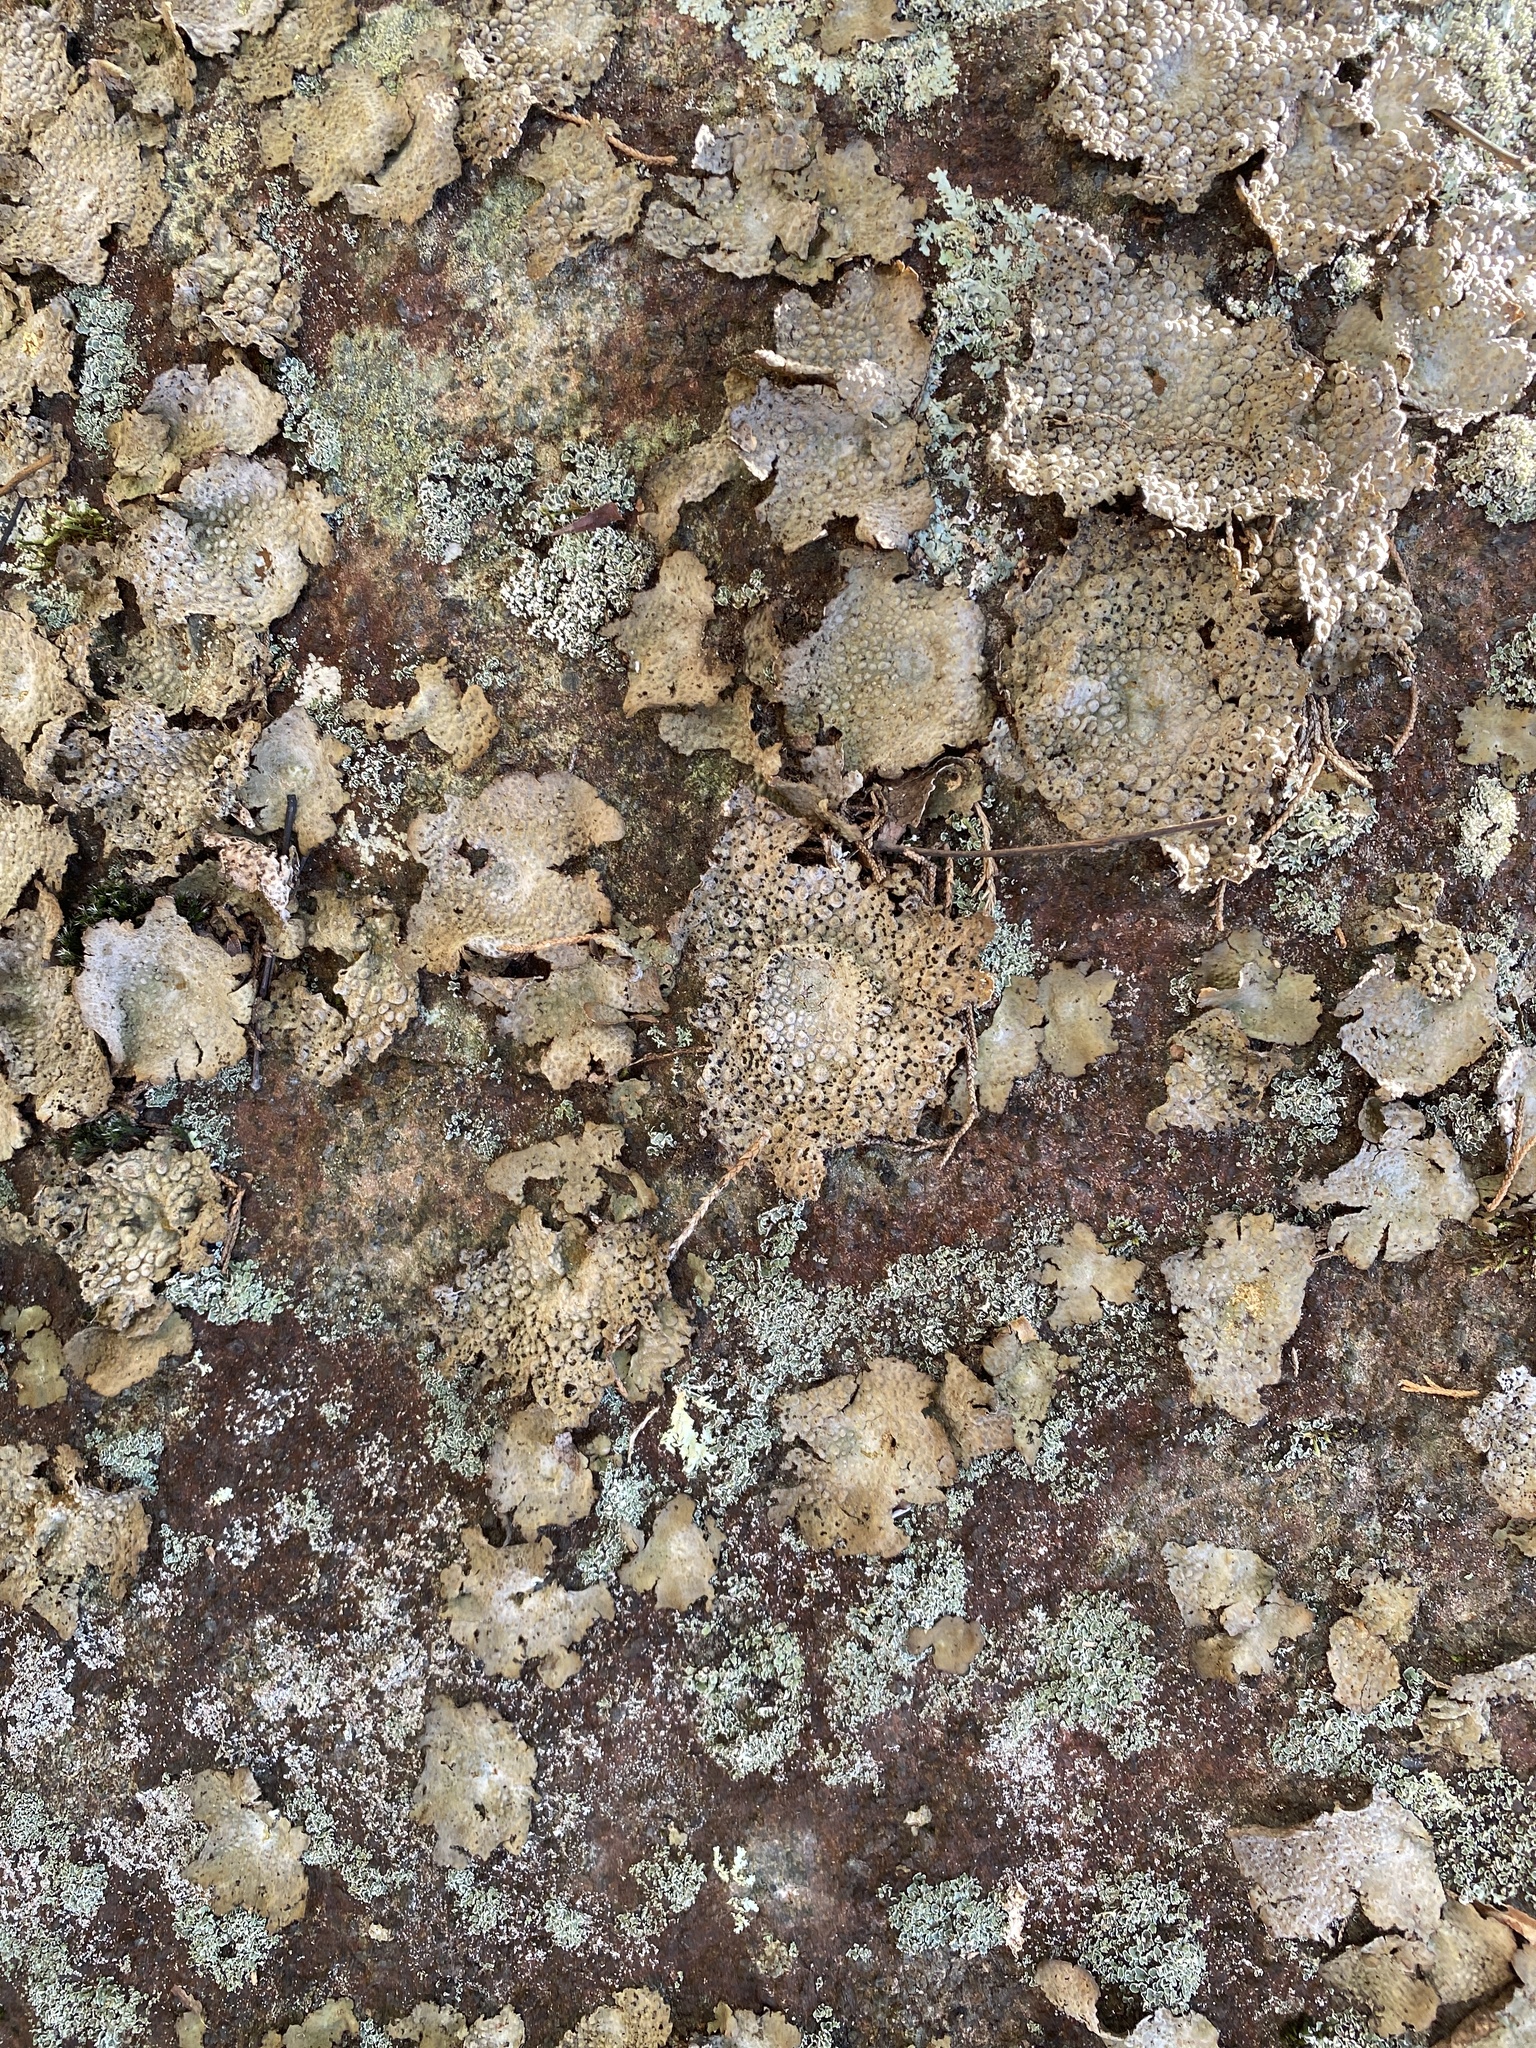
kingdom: Fungi
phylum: Ascomycota
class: Lecanoromycetes
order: Umbilicariales
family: Umbilicariaceae
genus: Lasallia
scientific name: Lasallia papulosa
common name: Common toadskin lichen
